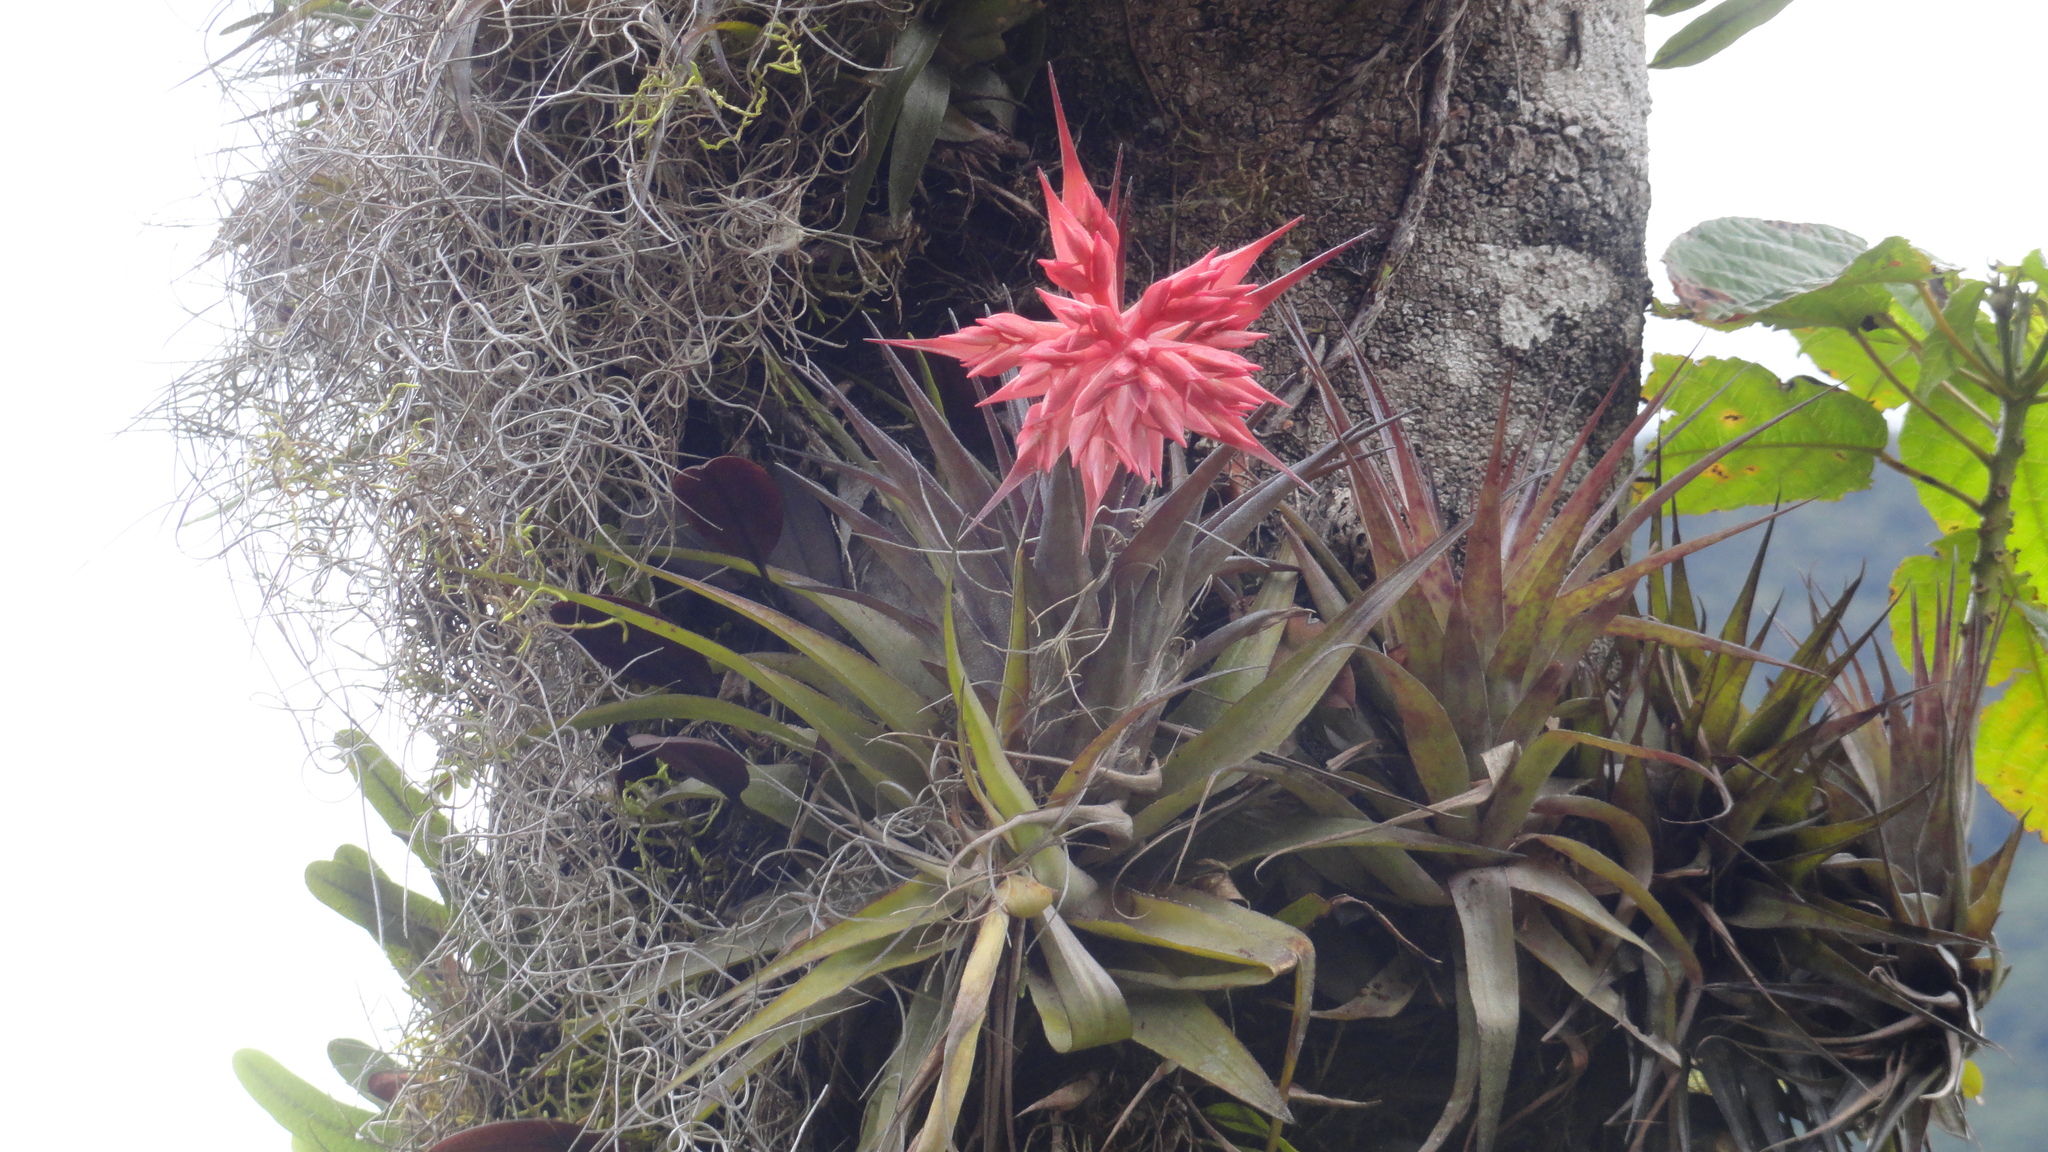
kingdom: Plantae
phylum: Tracheophyta
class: Liliopsida
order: Poales
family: Bromeliaceae
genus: Tillandsia
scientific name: Tillandsia geminiflora
